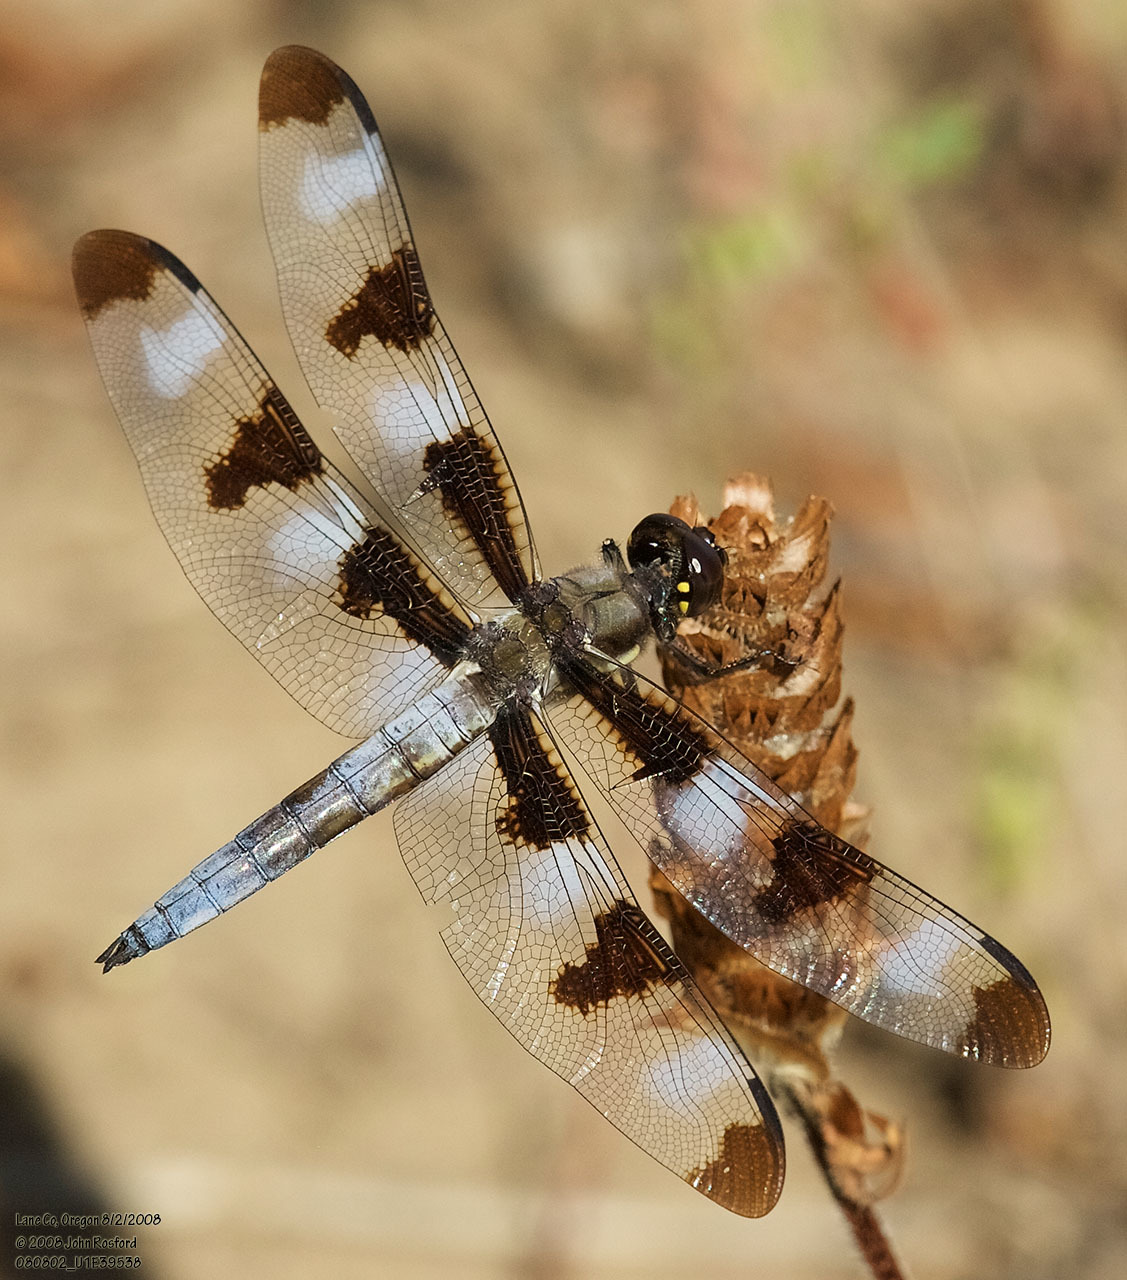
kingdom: Animalia
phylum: Arthropoda
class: Insecta
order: Odonata
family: Libellulidae
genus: Libellula
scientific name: Libellula pulchella
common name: Twelve-spotted skimmer
